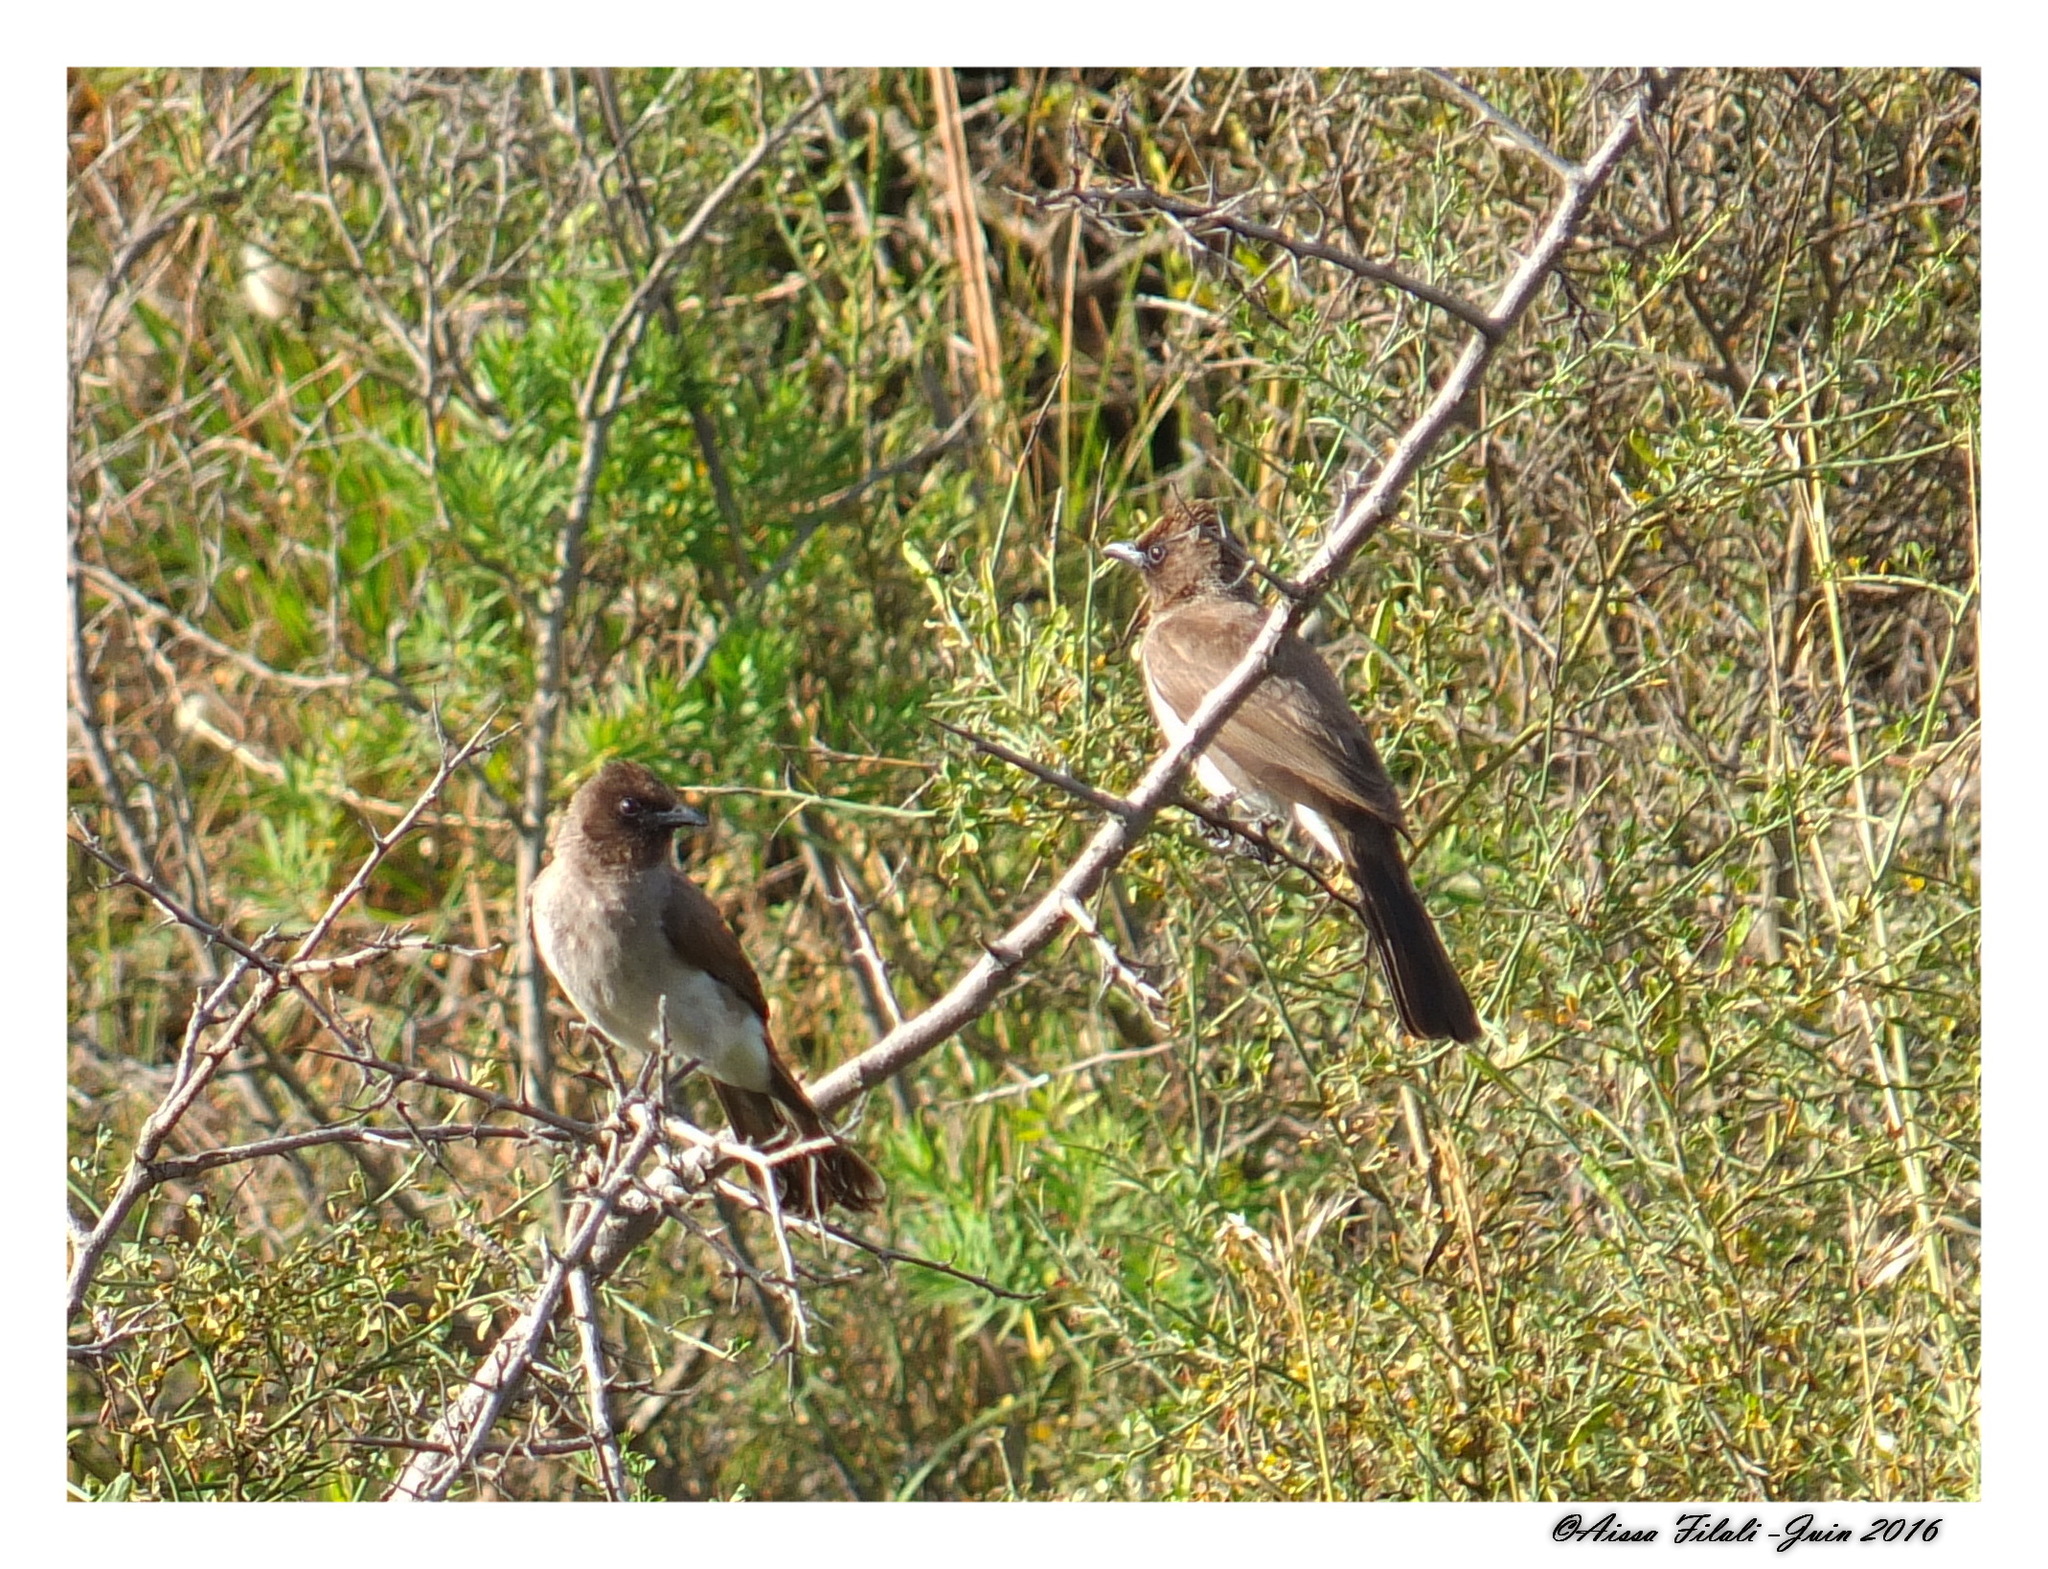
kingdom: Animalia
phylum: Chordata
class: Aves
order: Passeriformes
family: Pycnonotidae
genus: Pycnonotus
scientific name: Pycnonotus barbatus
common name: Common bulbul
